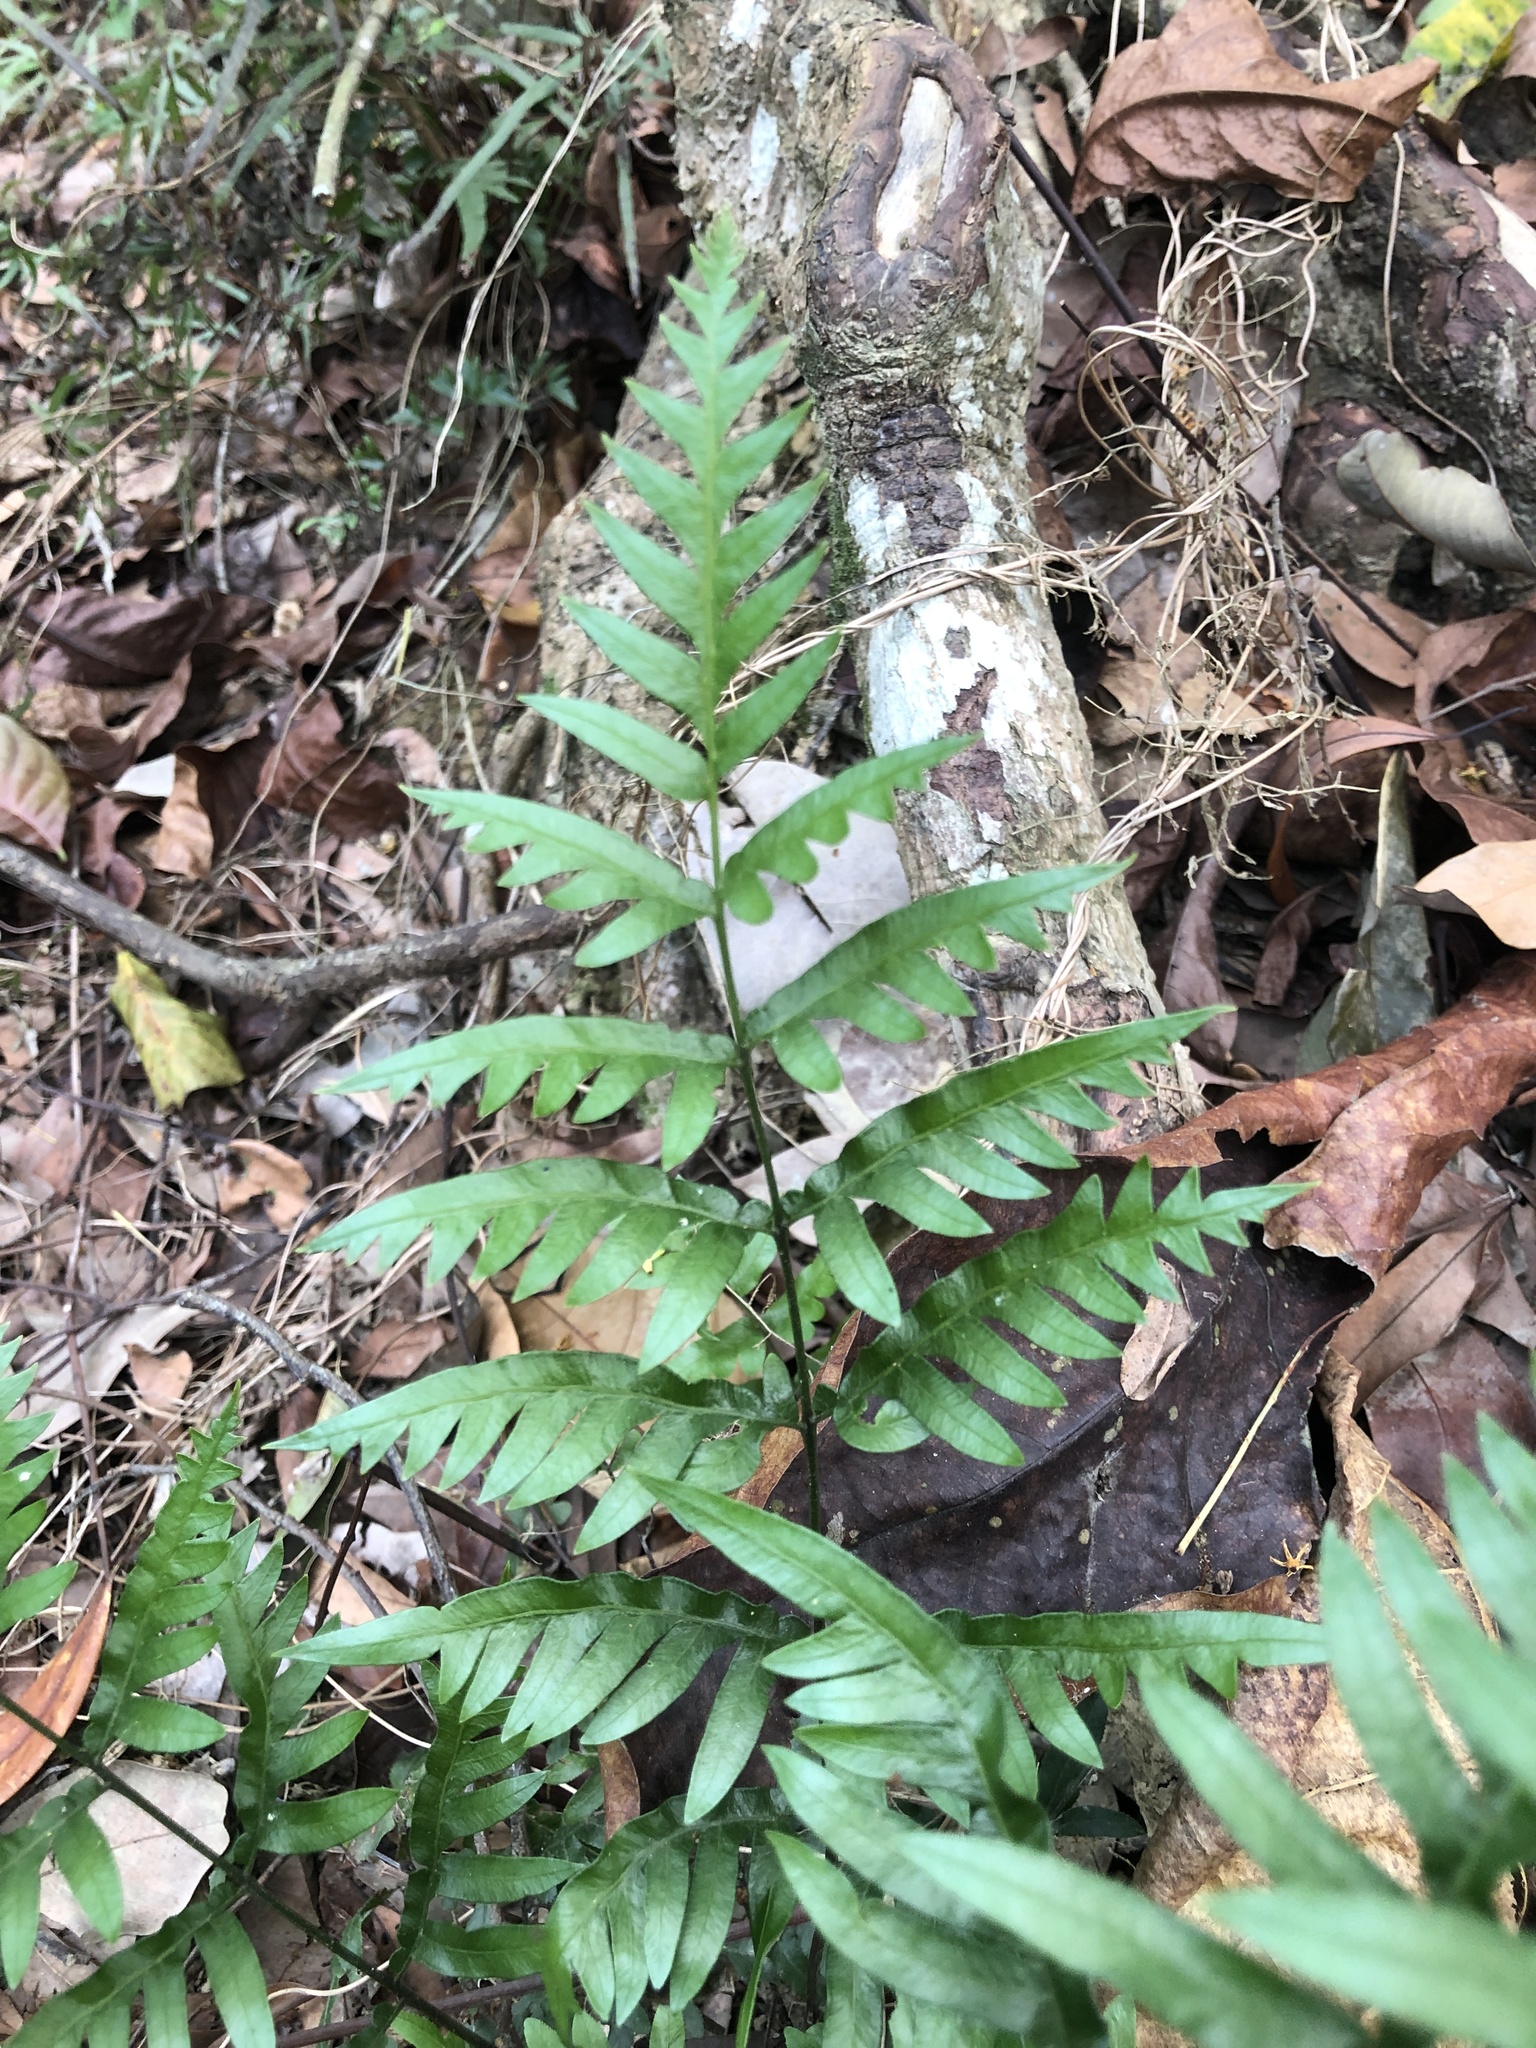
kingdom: Plantae
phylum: Tracheophyta
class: Polypodiopsida
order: Polypodiales
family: Pteridaceae
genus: Pteris
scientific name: Pteris semipinnata
